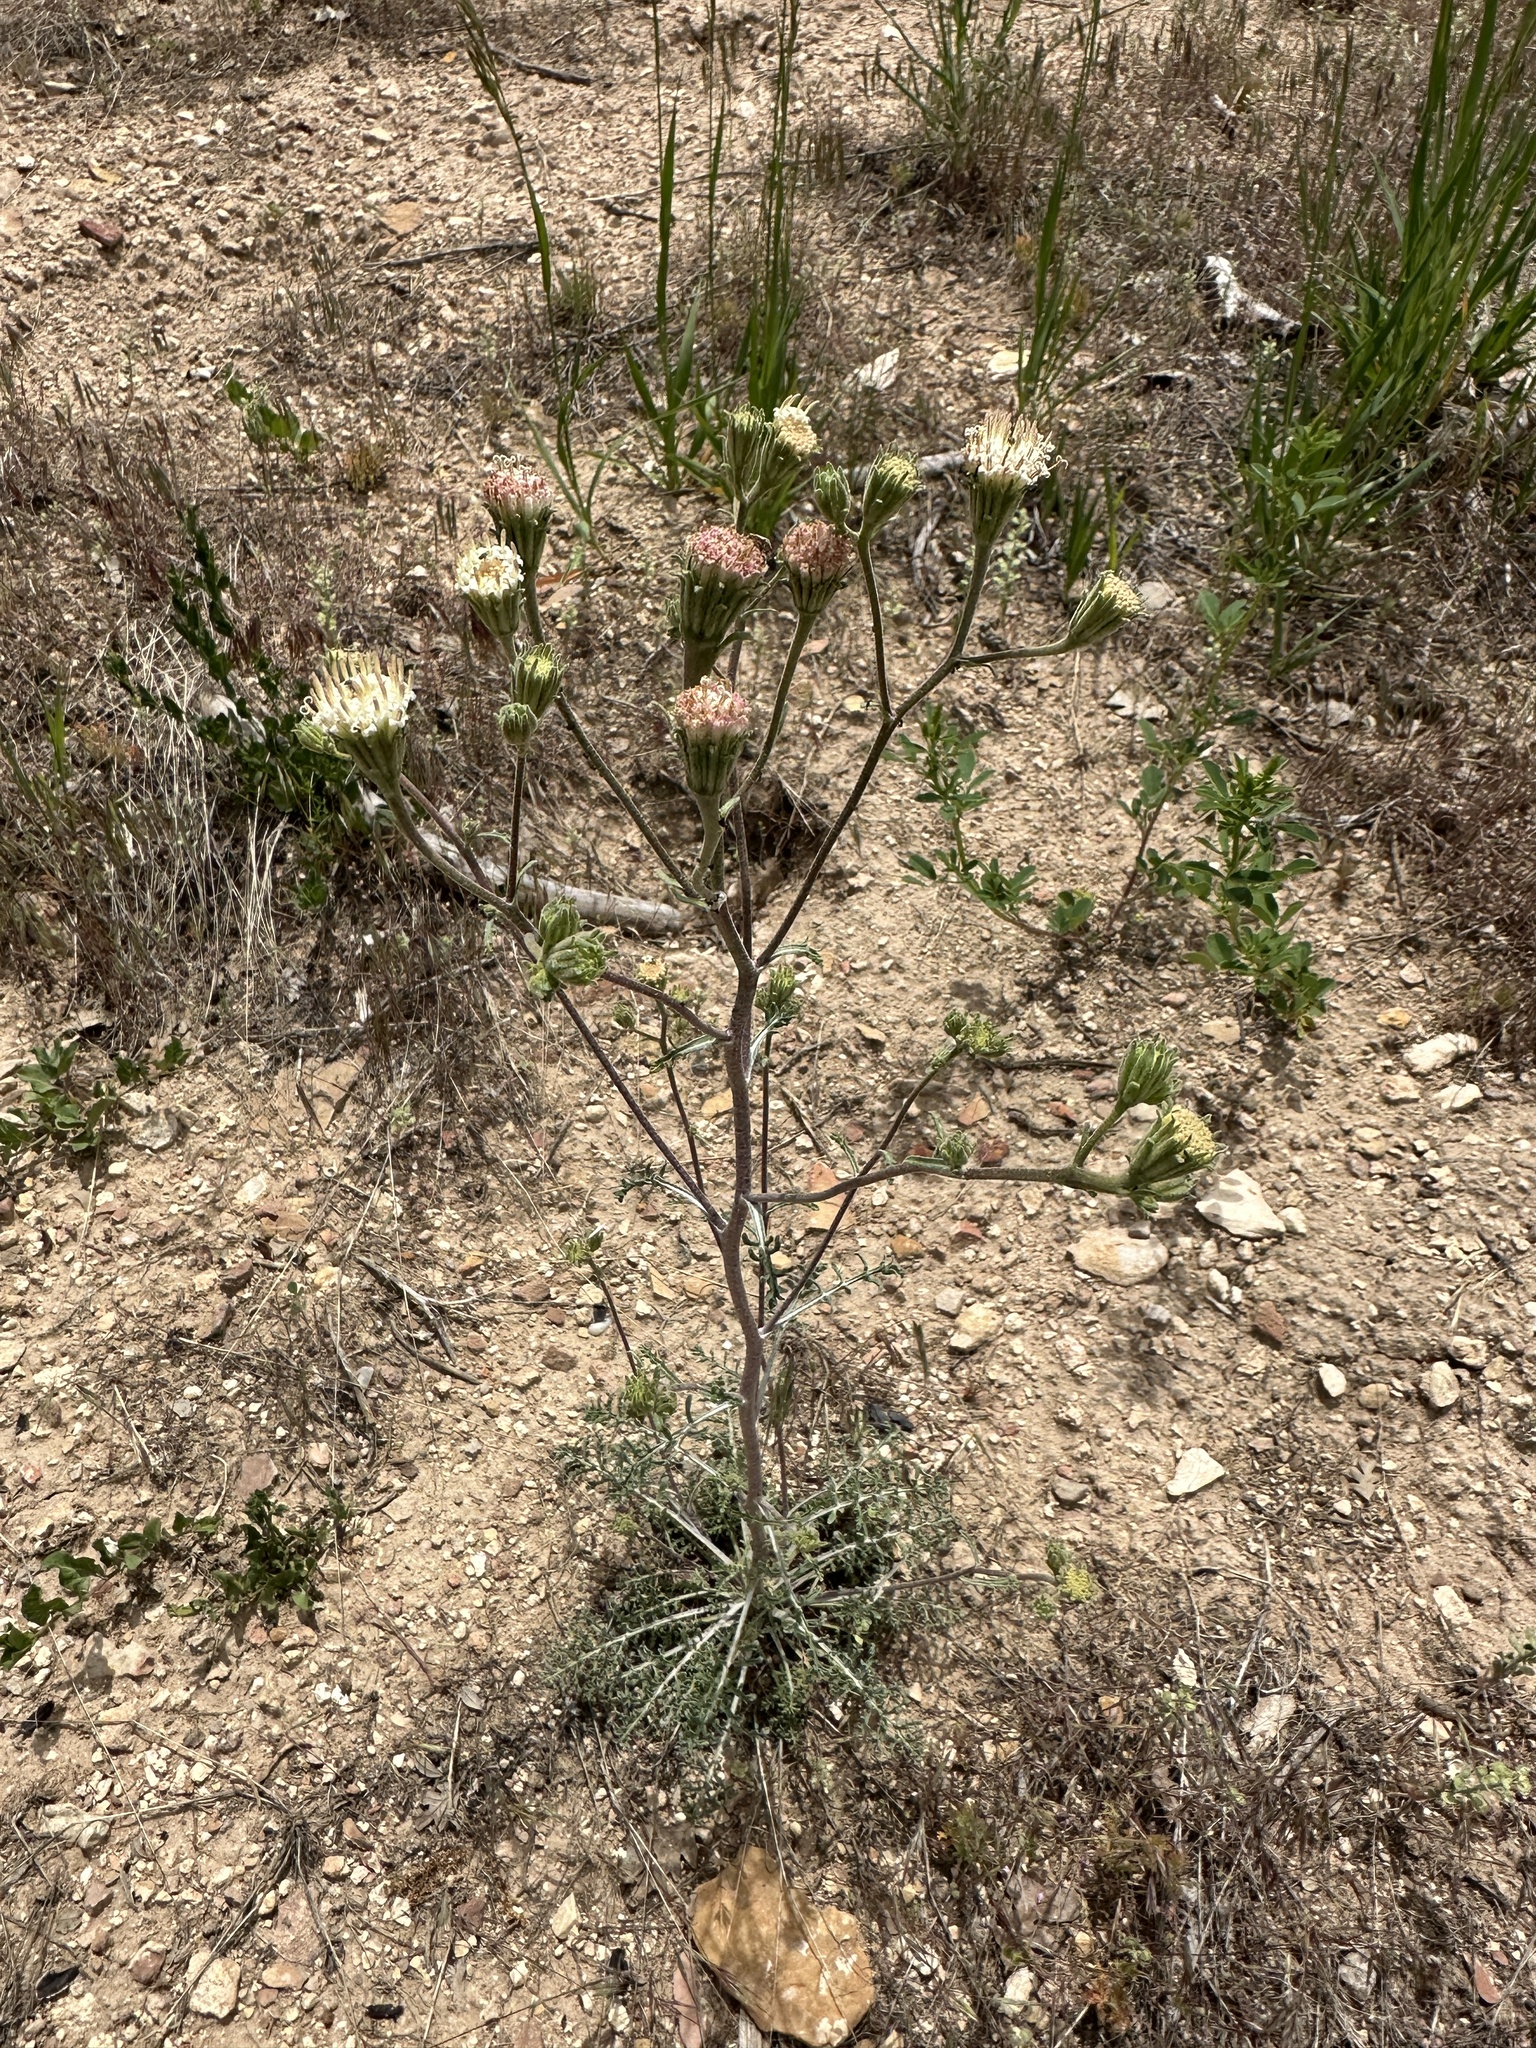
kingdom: Plantae
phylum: Tracheophyta
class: Magnoliopsida
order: Asterales
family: Asteraceae
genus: Chaenactis
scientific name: Chaenactis douglasii
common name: Hoary pincushion
